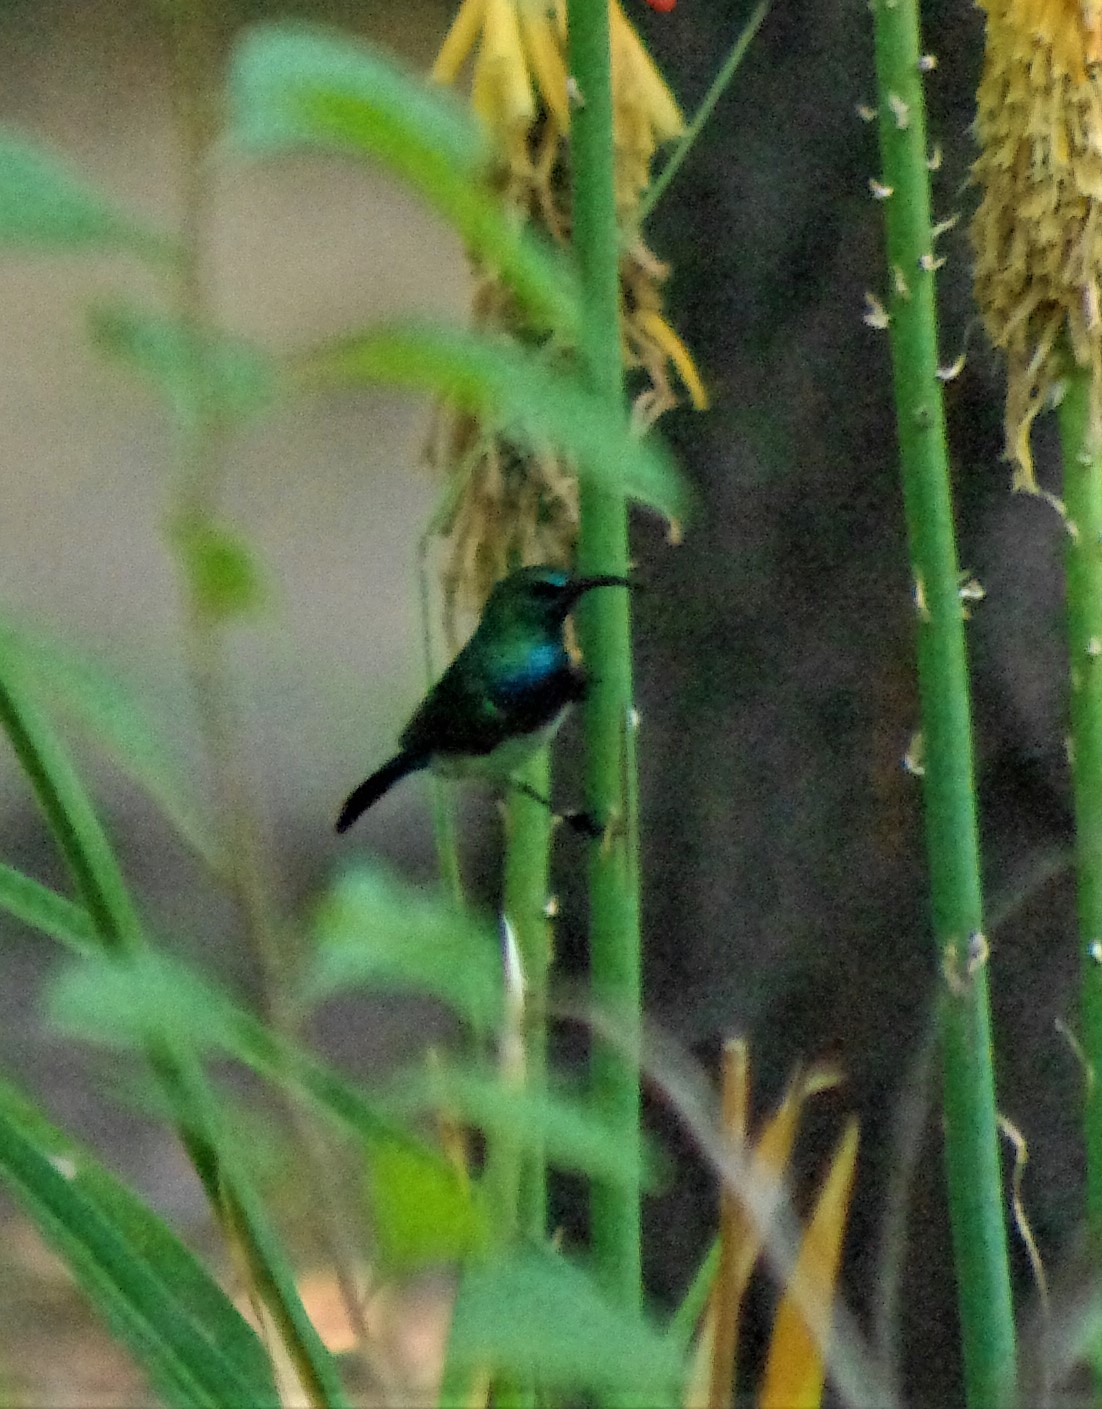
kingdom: Animalia
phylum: Chordata
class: Aves
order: Passeriformes
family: Nectariniidae
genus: Cinnyris
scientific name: Cinnyris talatala
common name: White-bellied sunbird
